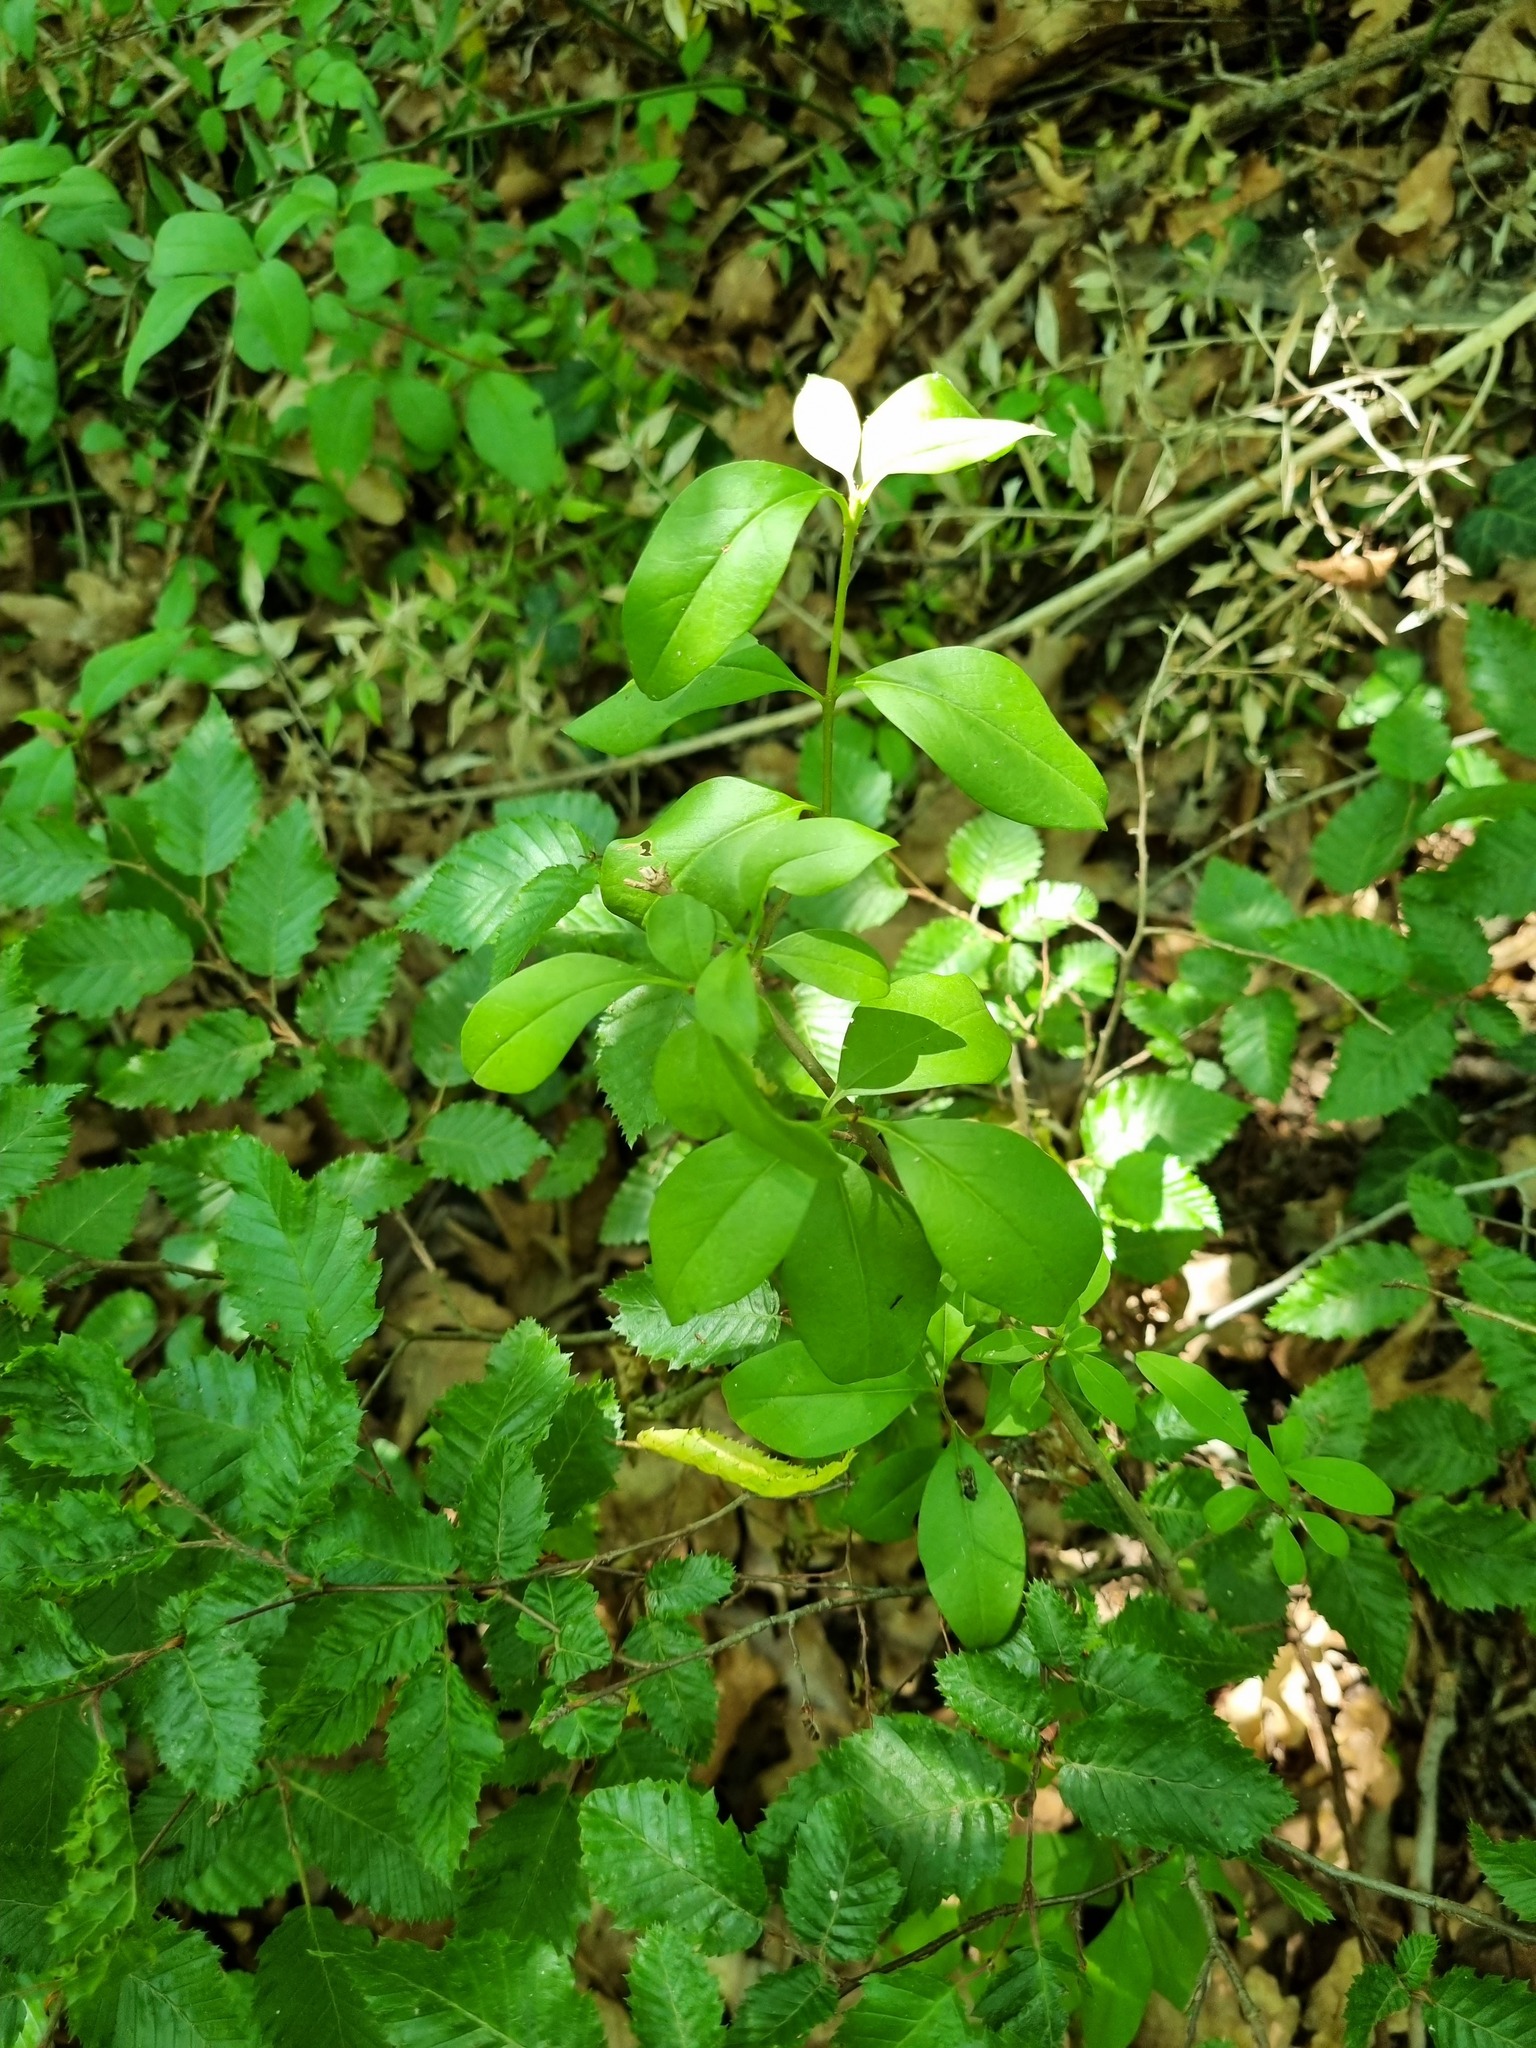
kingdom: Plantae
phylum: Tracheophyta
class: Magnoliopsida
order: Lamiales
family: Oleaceae
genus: Ligustrum
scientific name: Ligustrum vulgare
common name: Wild privet
